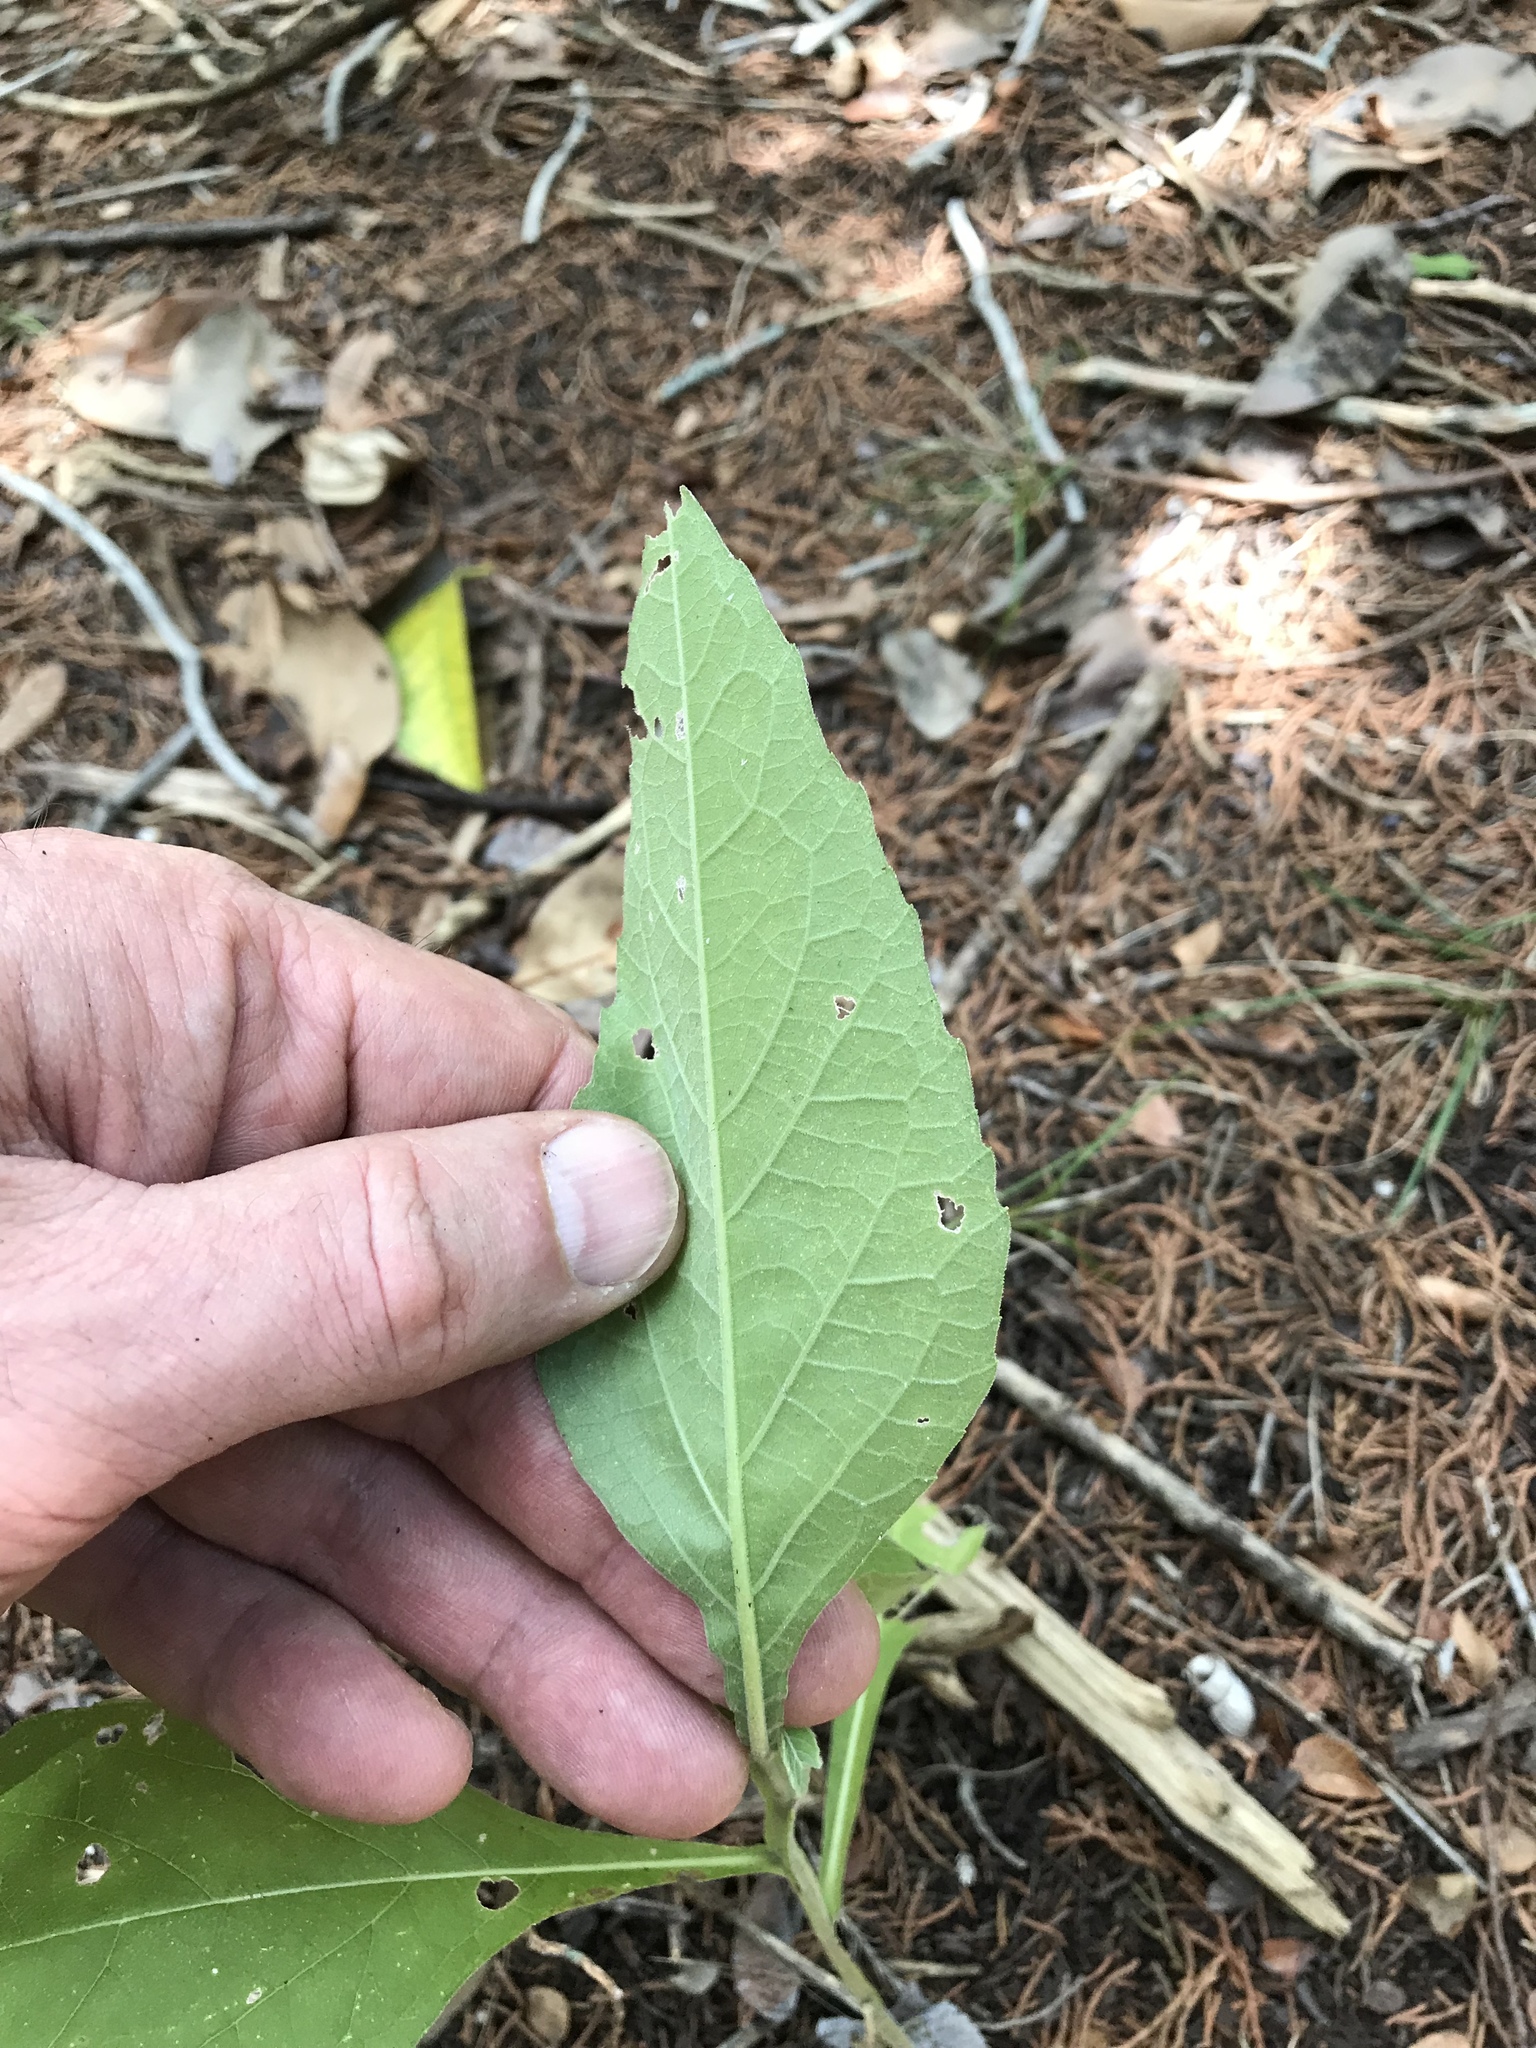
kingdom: Plantae
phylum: Tracheophyta
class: Magnoliopsida
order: Asterales
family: Asteraceae
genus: Verbesina
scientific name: Verbesina virginica
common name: Frostweed
